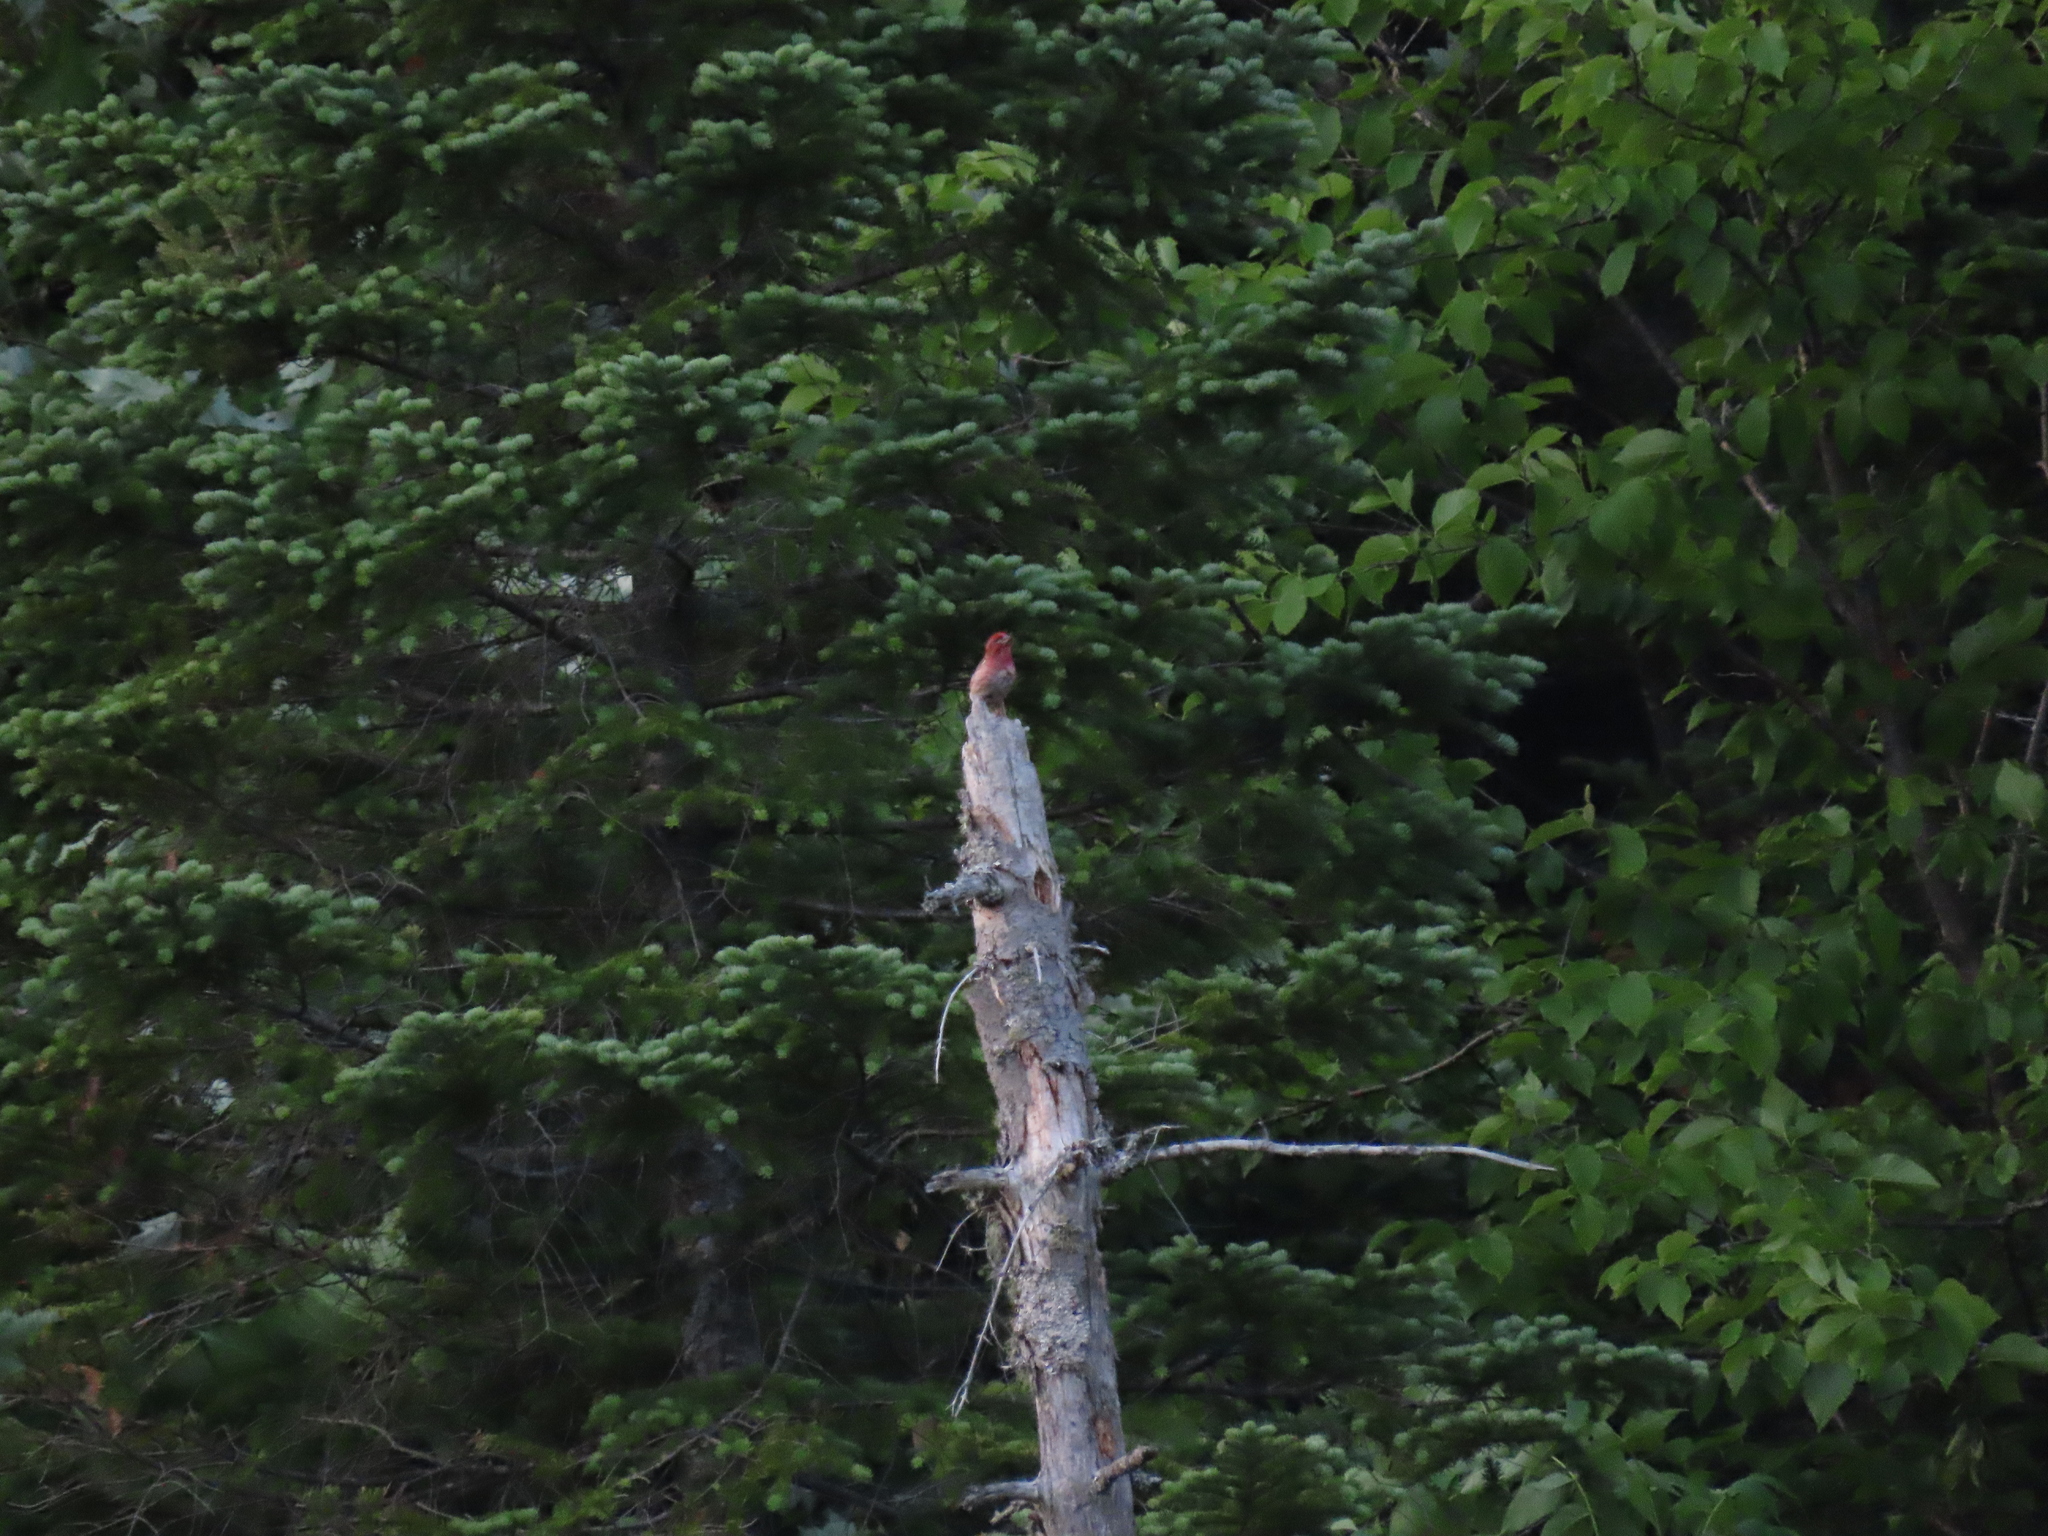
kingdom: Animalia
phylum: Chordata
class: Aves
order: Passeriformes
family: Fringillidae
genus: Haemorhous
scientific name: Haemorhous purpureus
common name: Purple finch
